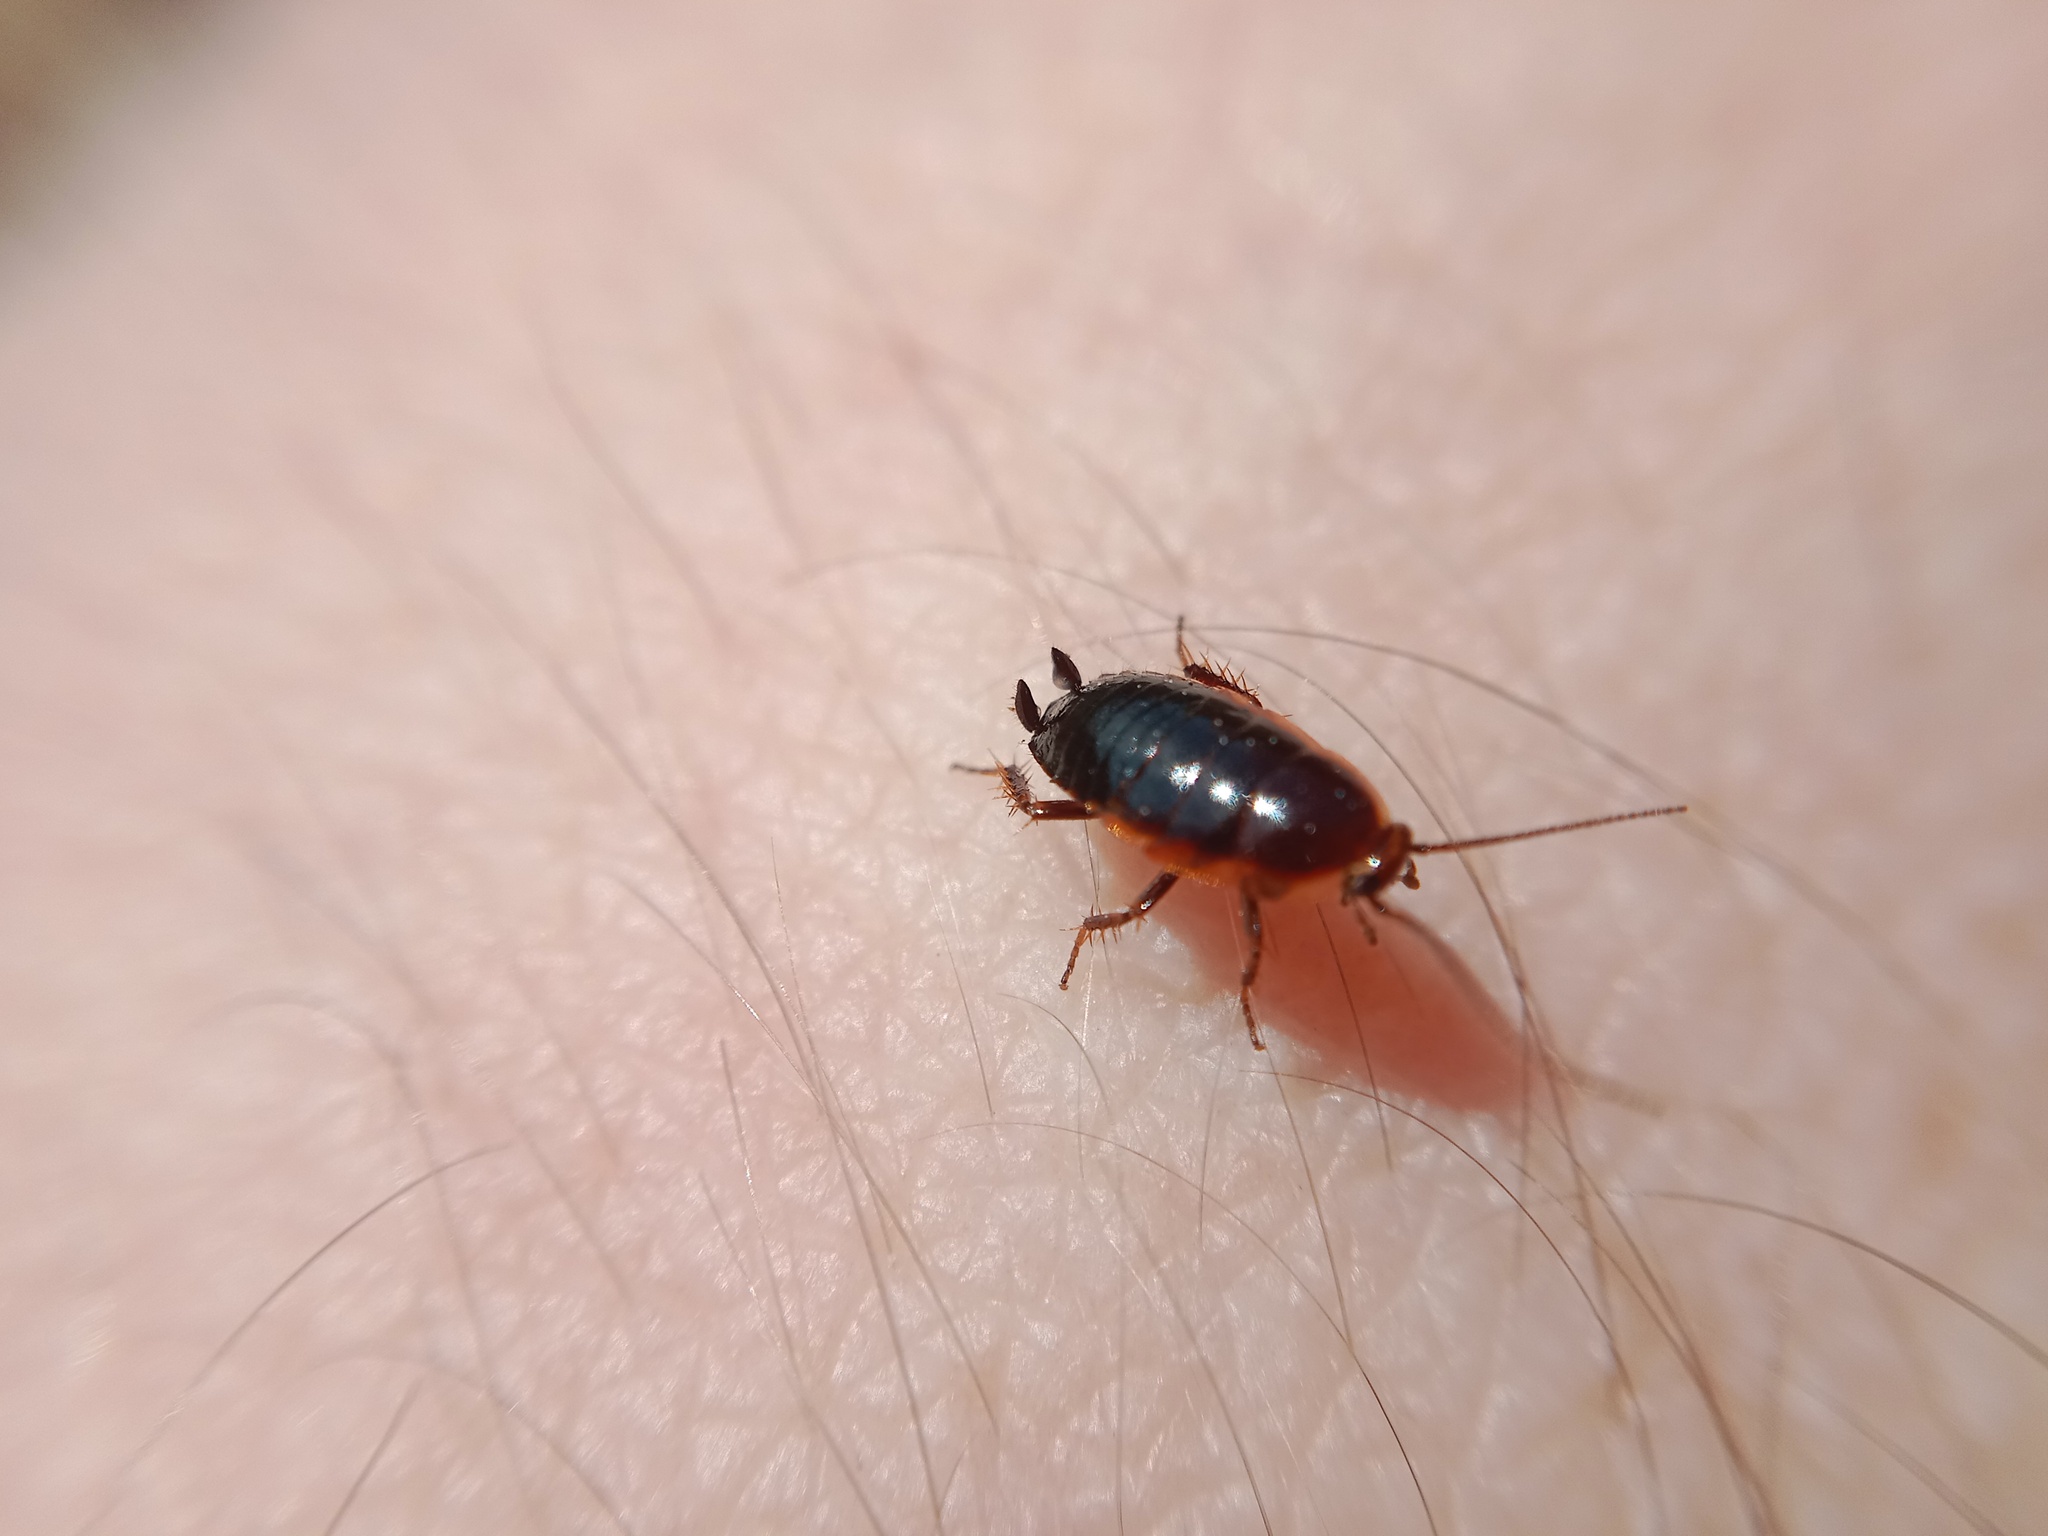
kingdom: Animalia
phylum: Arthropoda
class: Insecta
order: Blattodea
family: Ectobiidae
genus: Ectobius
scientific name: Ectobius sylvestris
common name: Forest cockroach
